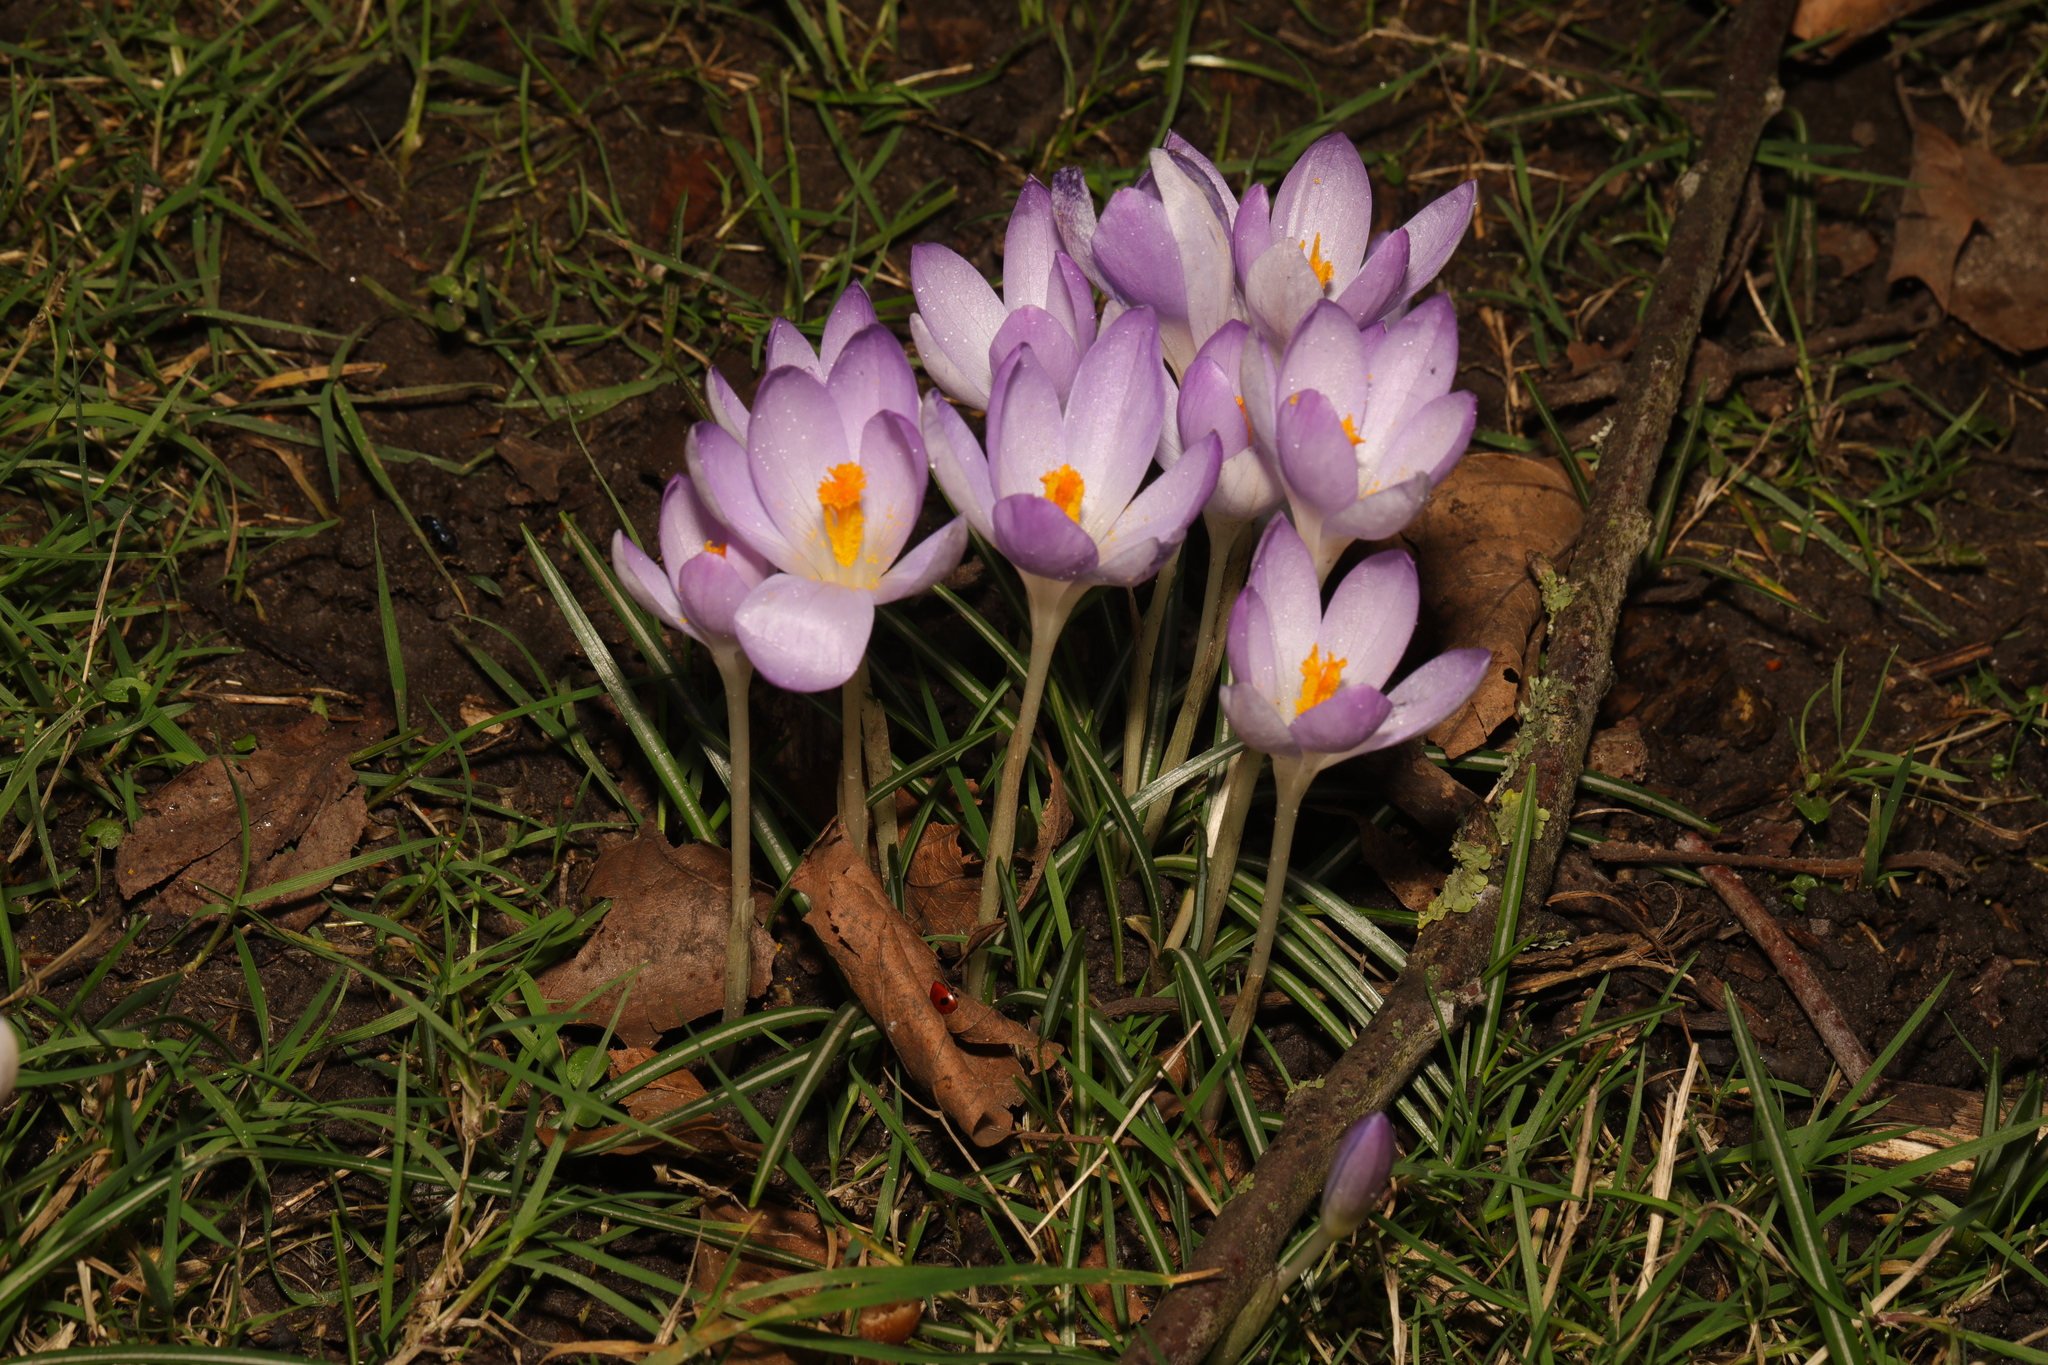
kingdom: Plantae
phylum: Tracheophyta
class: Liliopsida
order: Asparagales
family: Iridaceae
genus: Crocus
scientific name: Crocus tommasinianus
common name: Early crocus
